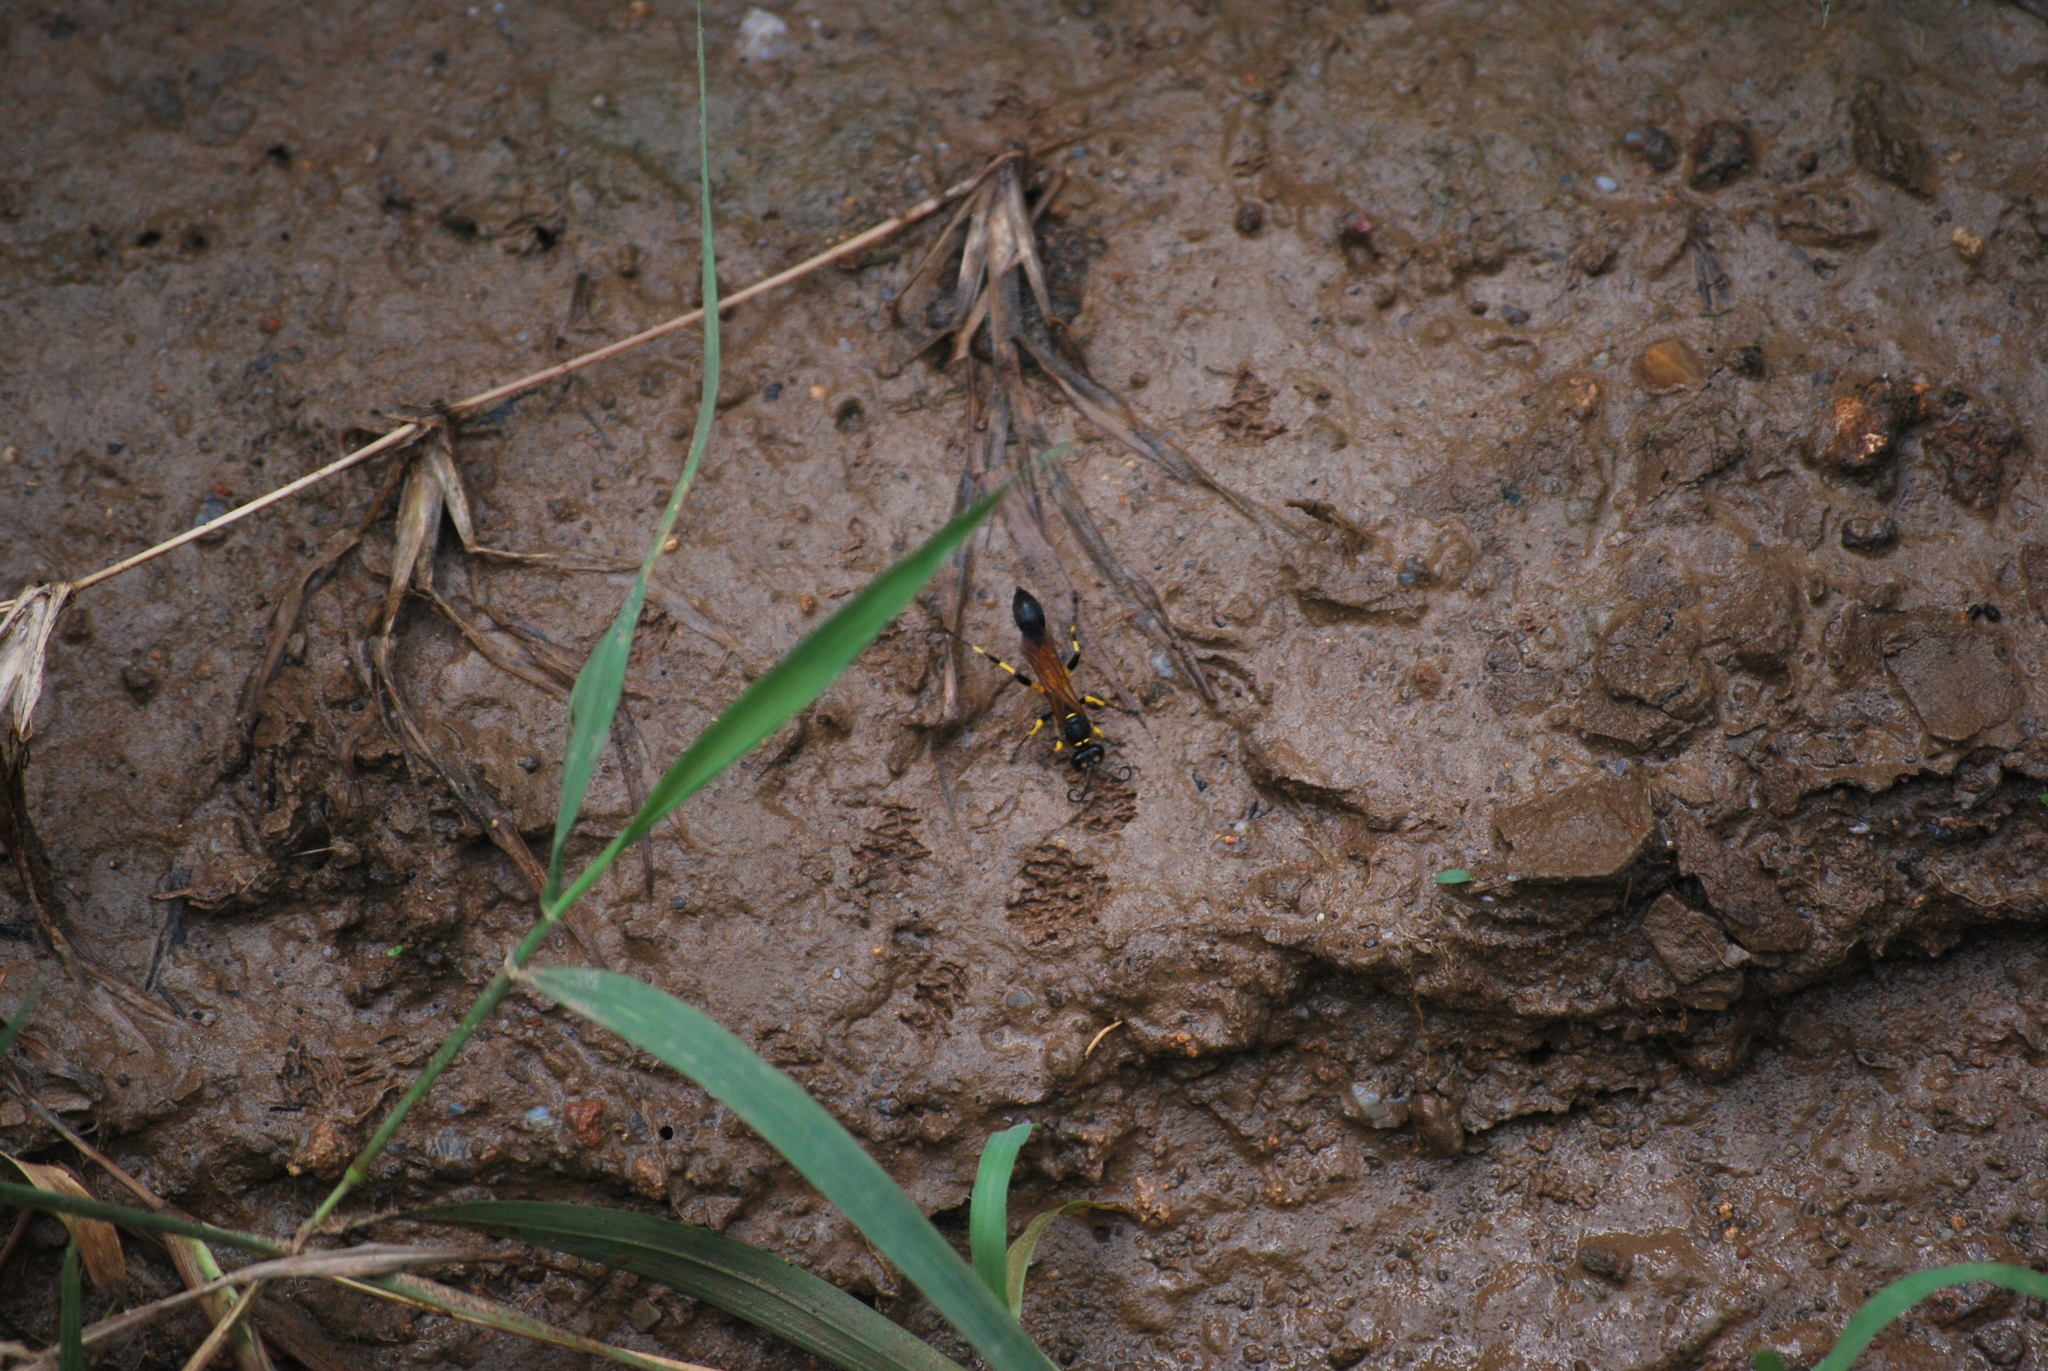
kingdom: Animalia
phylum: Arthropoda
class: Insecta
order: Hymenoptera
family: Sphecidae
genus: Sceliphron
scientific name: Sceliphron madraspatanum
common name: Mud dauber
